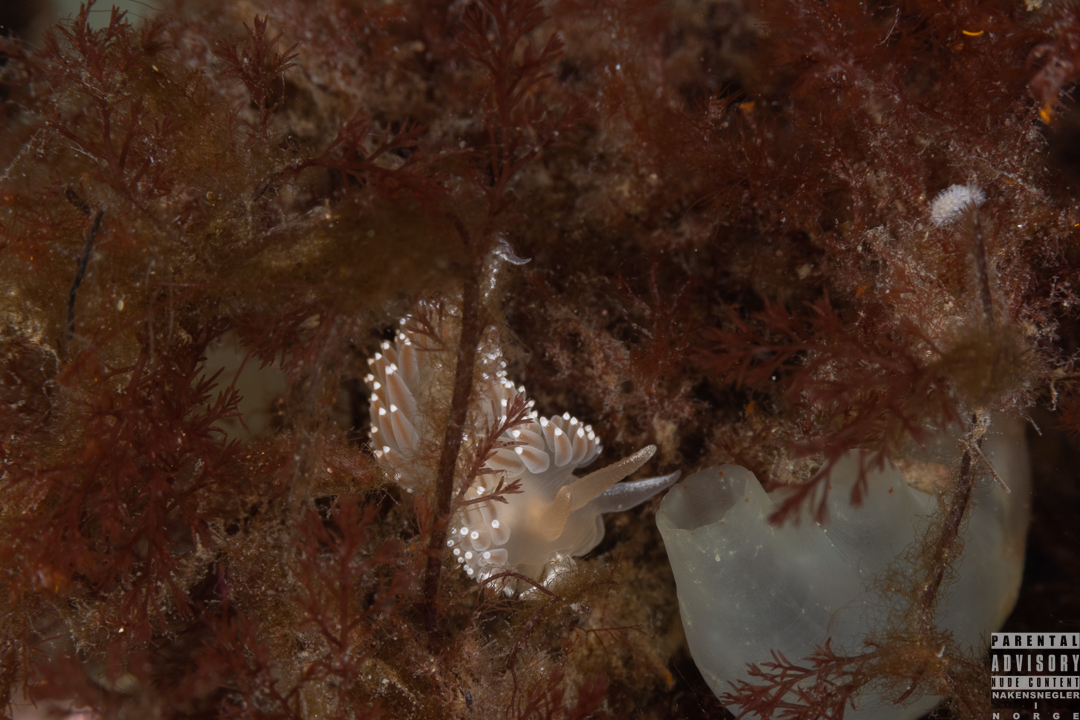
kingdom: Animalia
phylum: Mollusca
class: Gastropoda
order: Nudibranchia
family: Coryphellidae
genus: Coryphella
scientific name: Coryphella verrucosa
